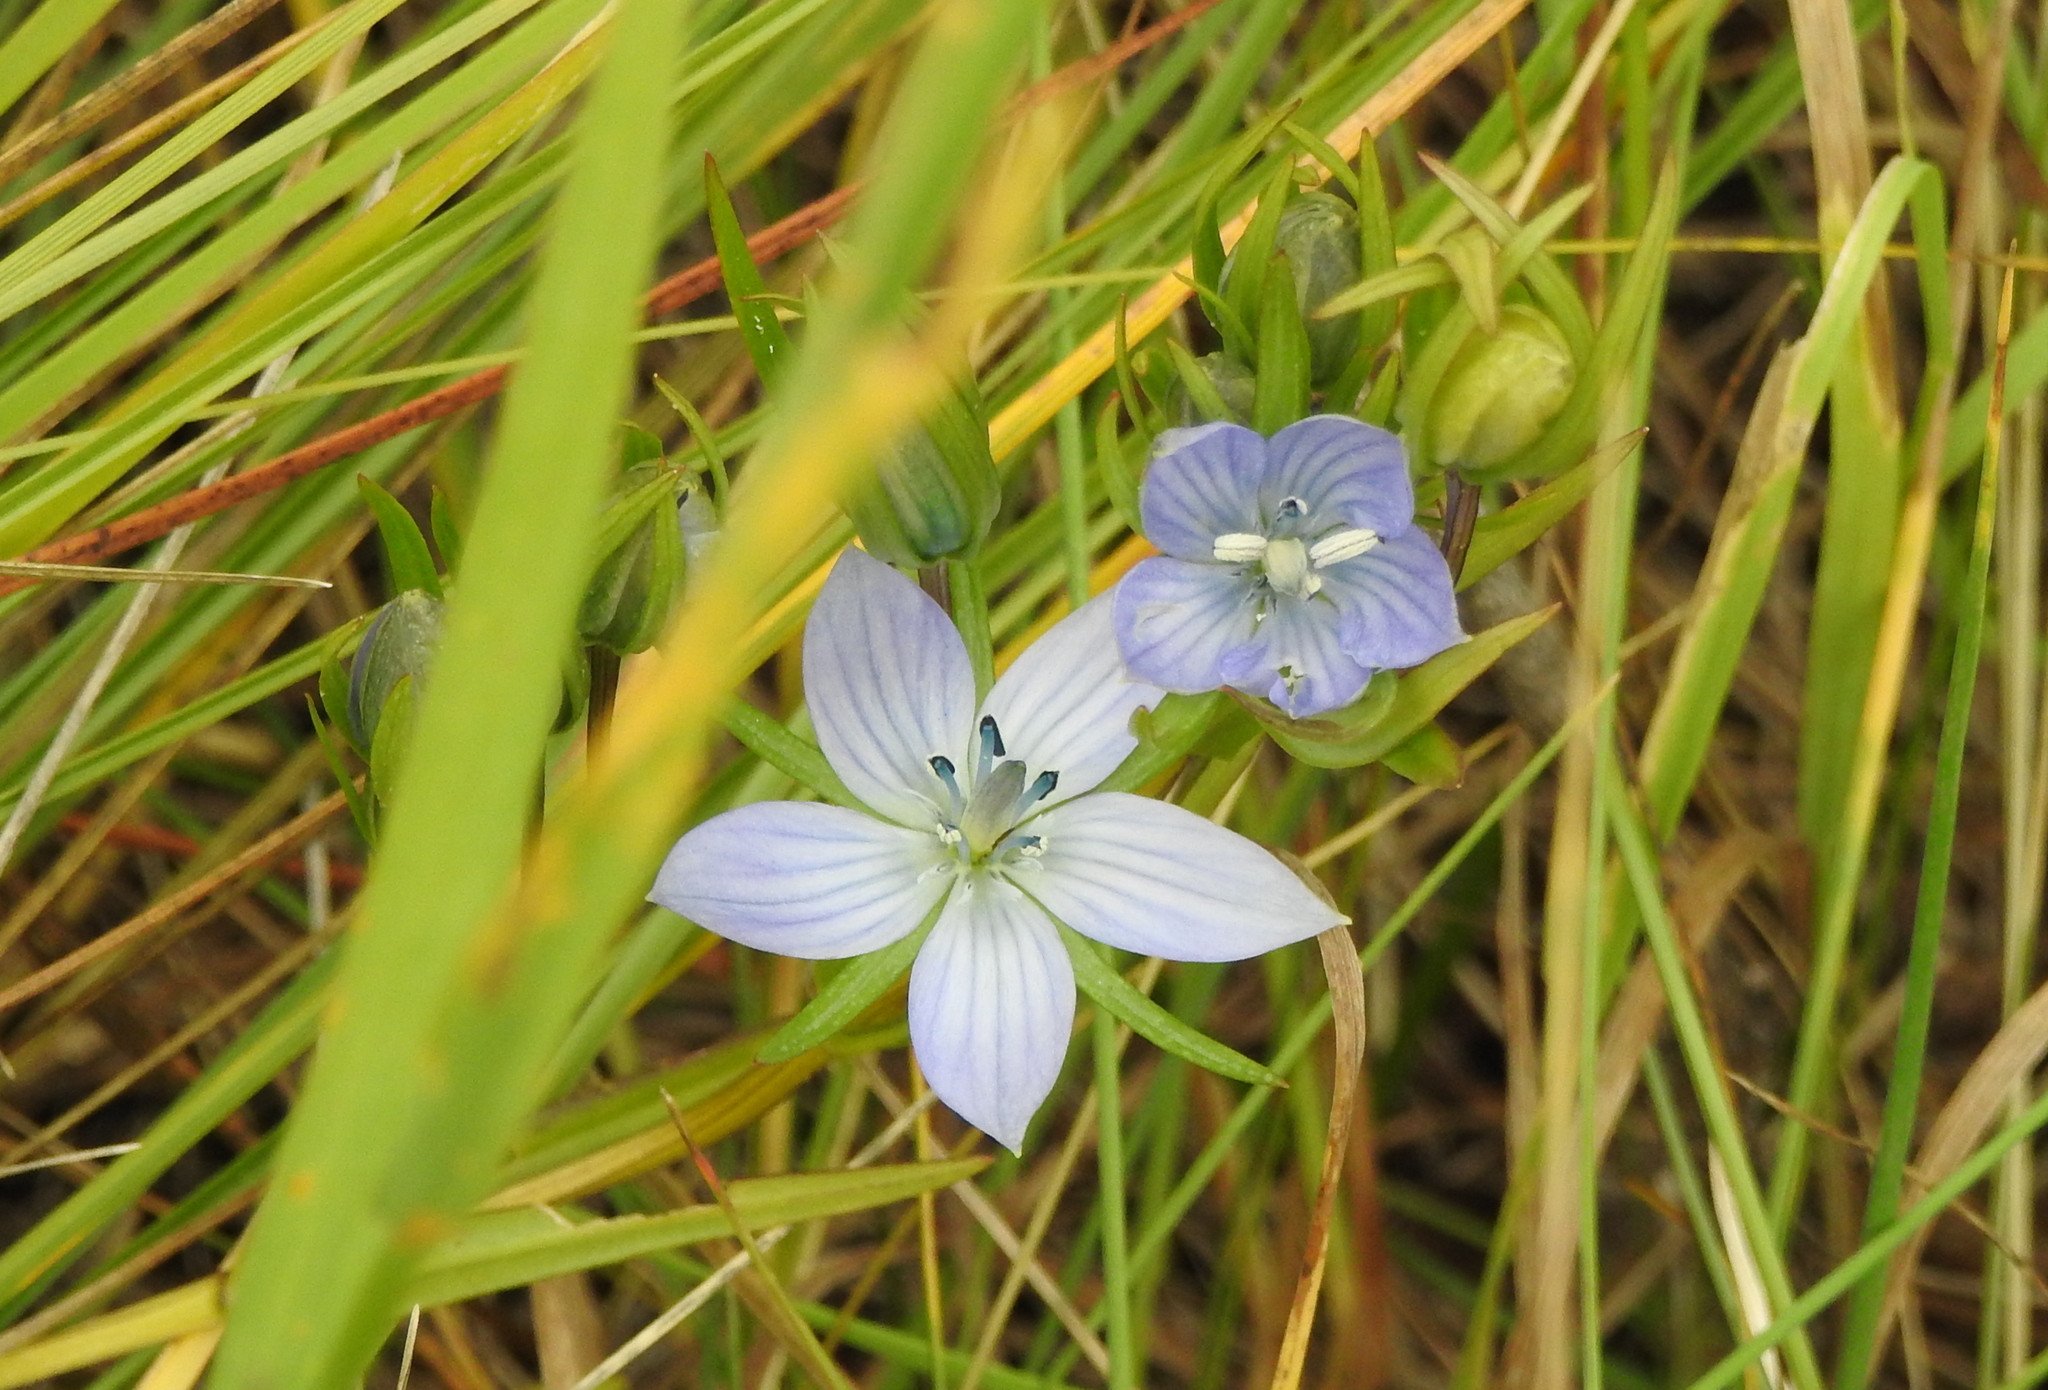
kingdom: Plantae
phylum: Tracheophyta
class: Magnoliopsida
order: Gentianales
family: Gentianaceae
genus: Lomatogonium
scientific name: Lomatogonium rotatum
